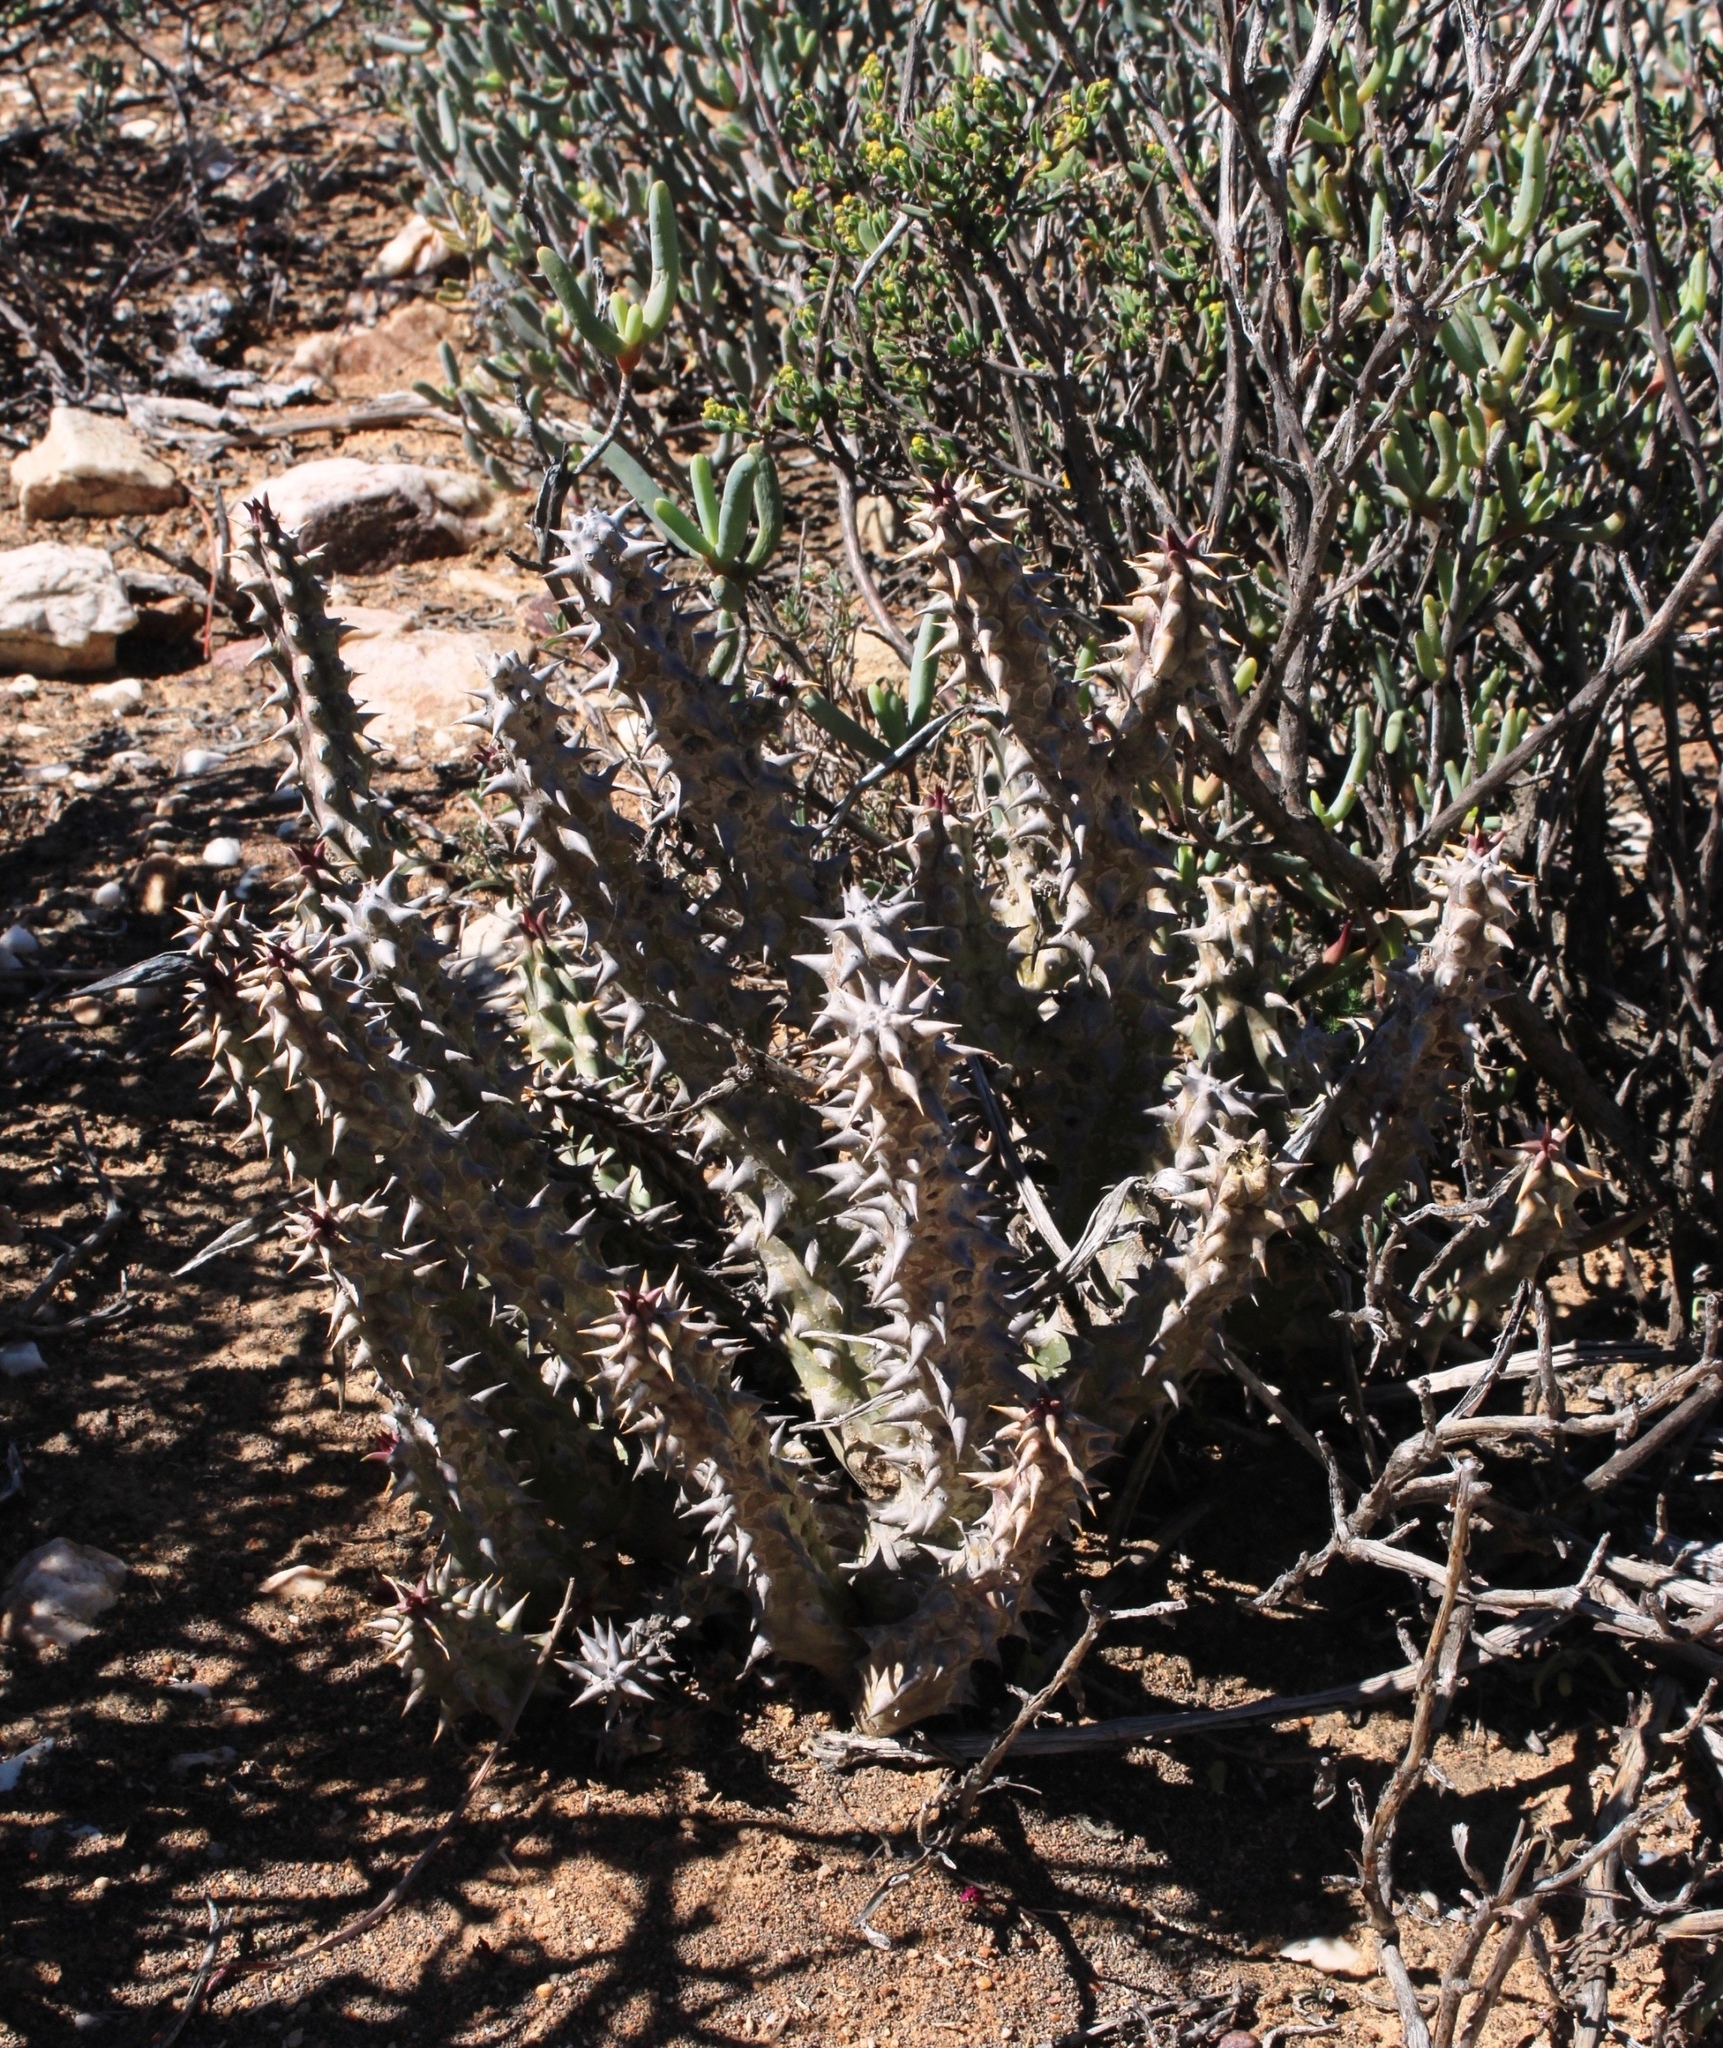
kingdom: Plantae
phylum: Tracheophyta
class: Magnoliopsida
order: Gentianales
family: Apocynaceae
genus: Ceropegia
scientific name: Ceropegia mammillaris
